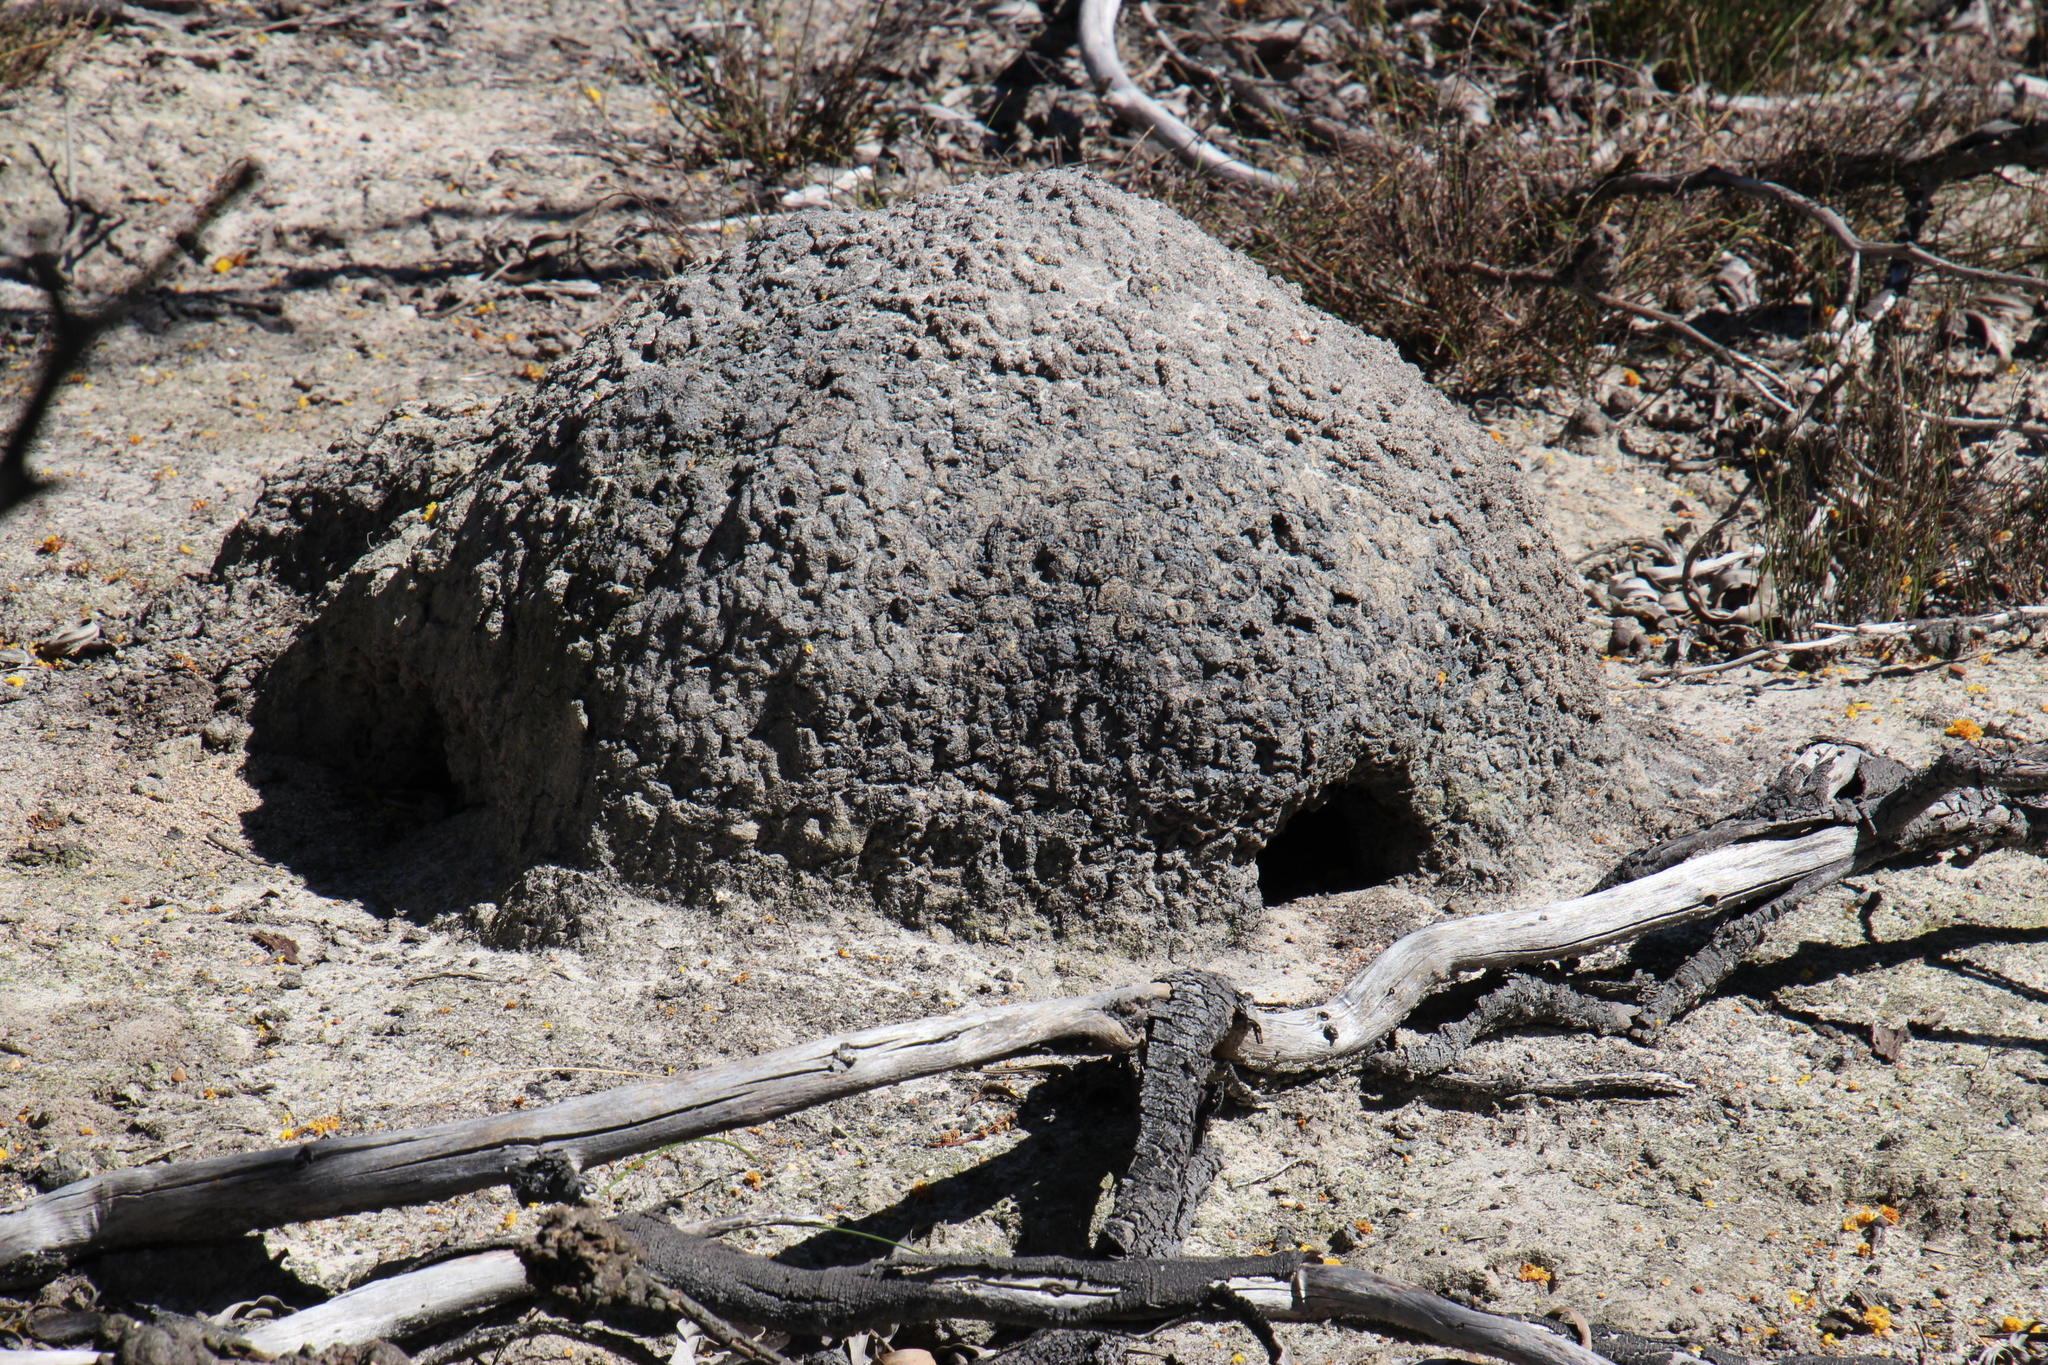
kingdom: Animalia
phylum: Arthropoda
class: Insecta
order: Blattodea
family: Termitidae
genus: Amitermes
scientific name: Amitermes hastatus
